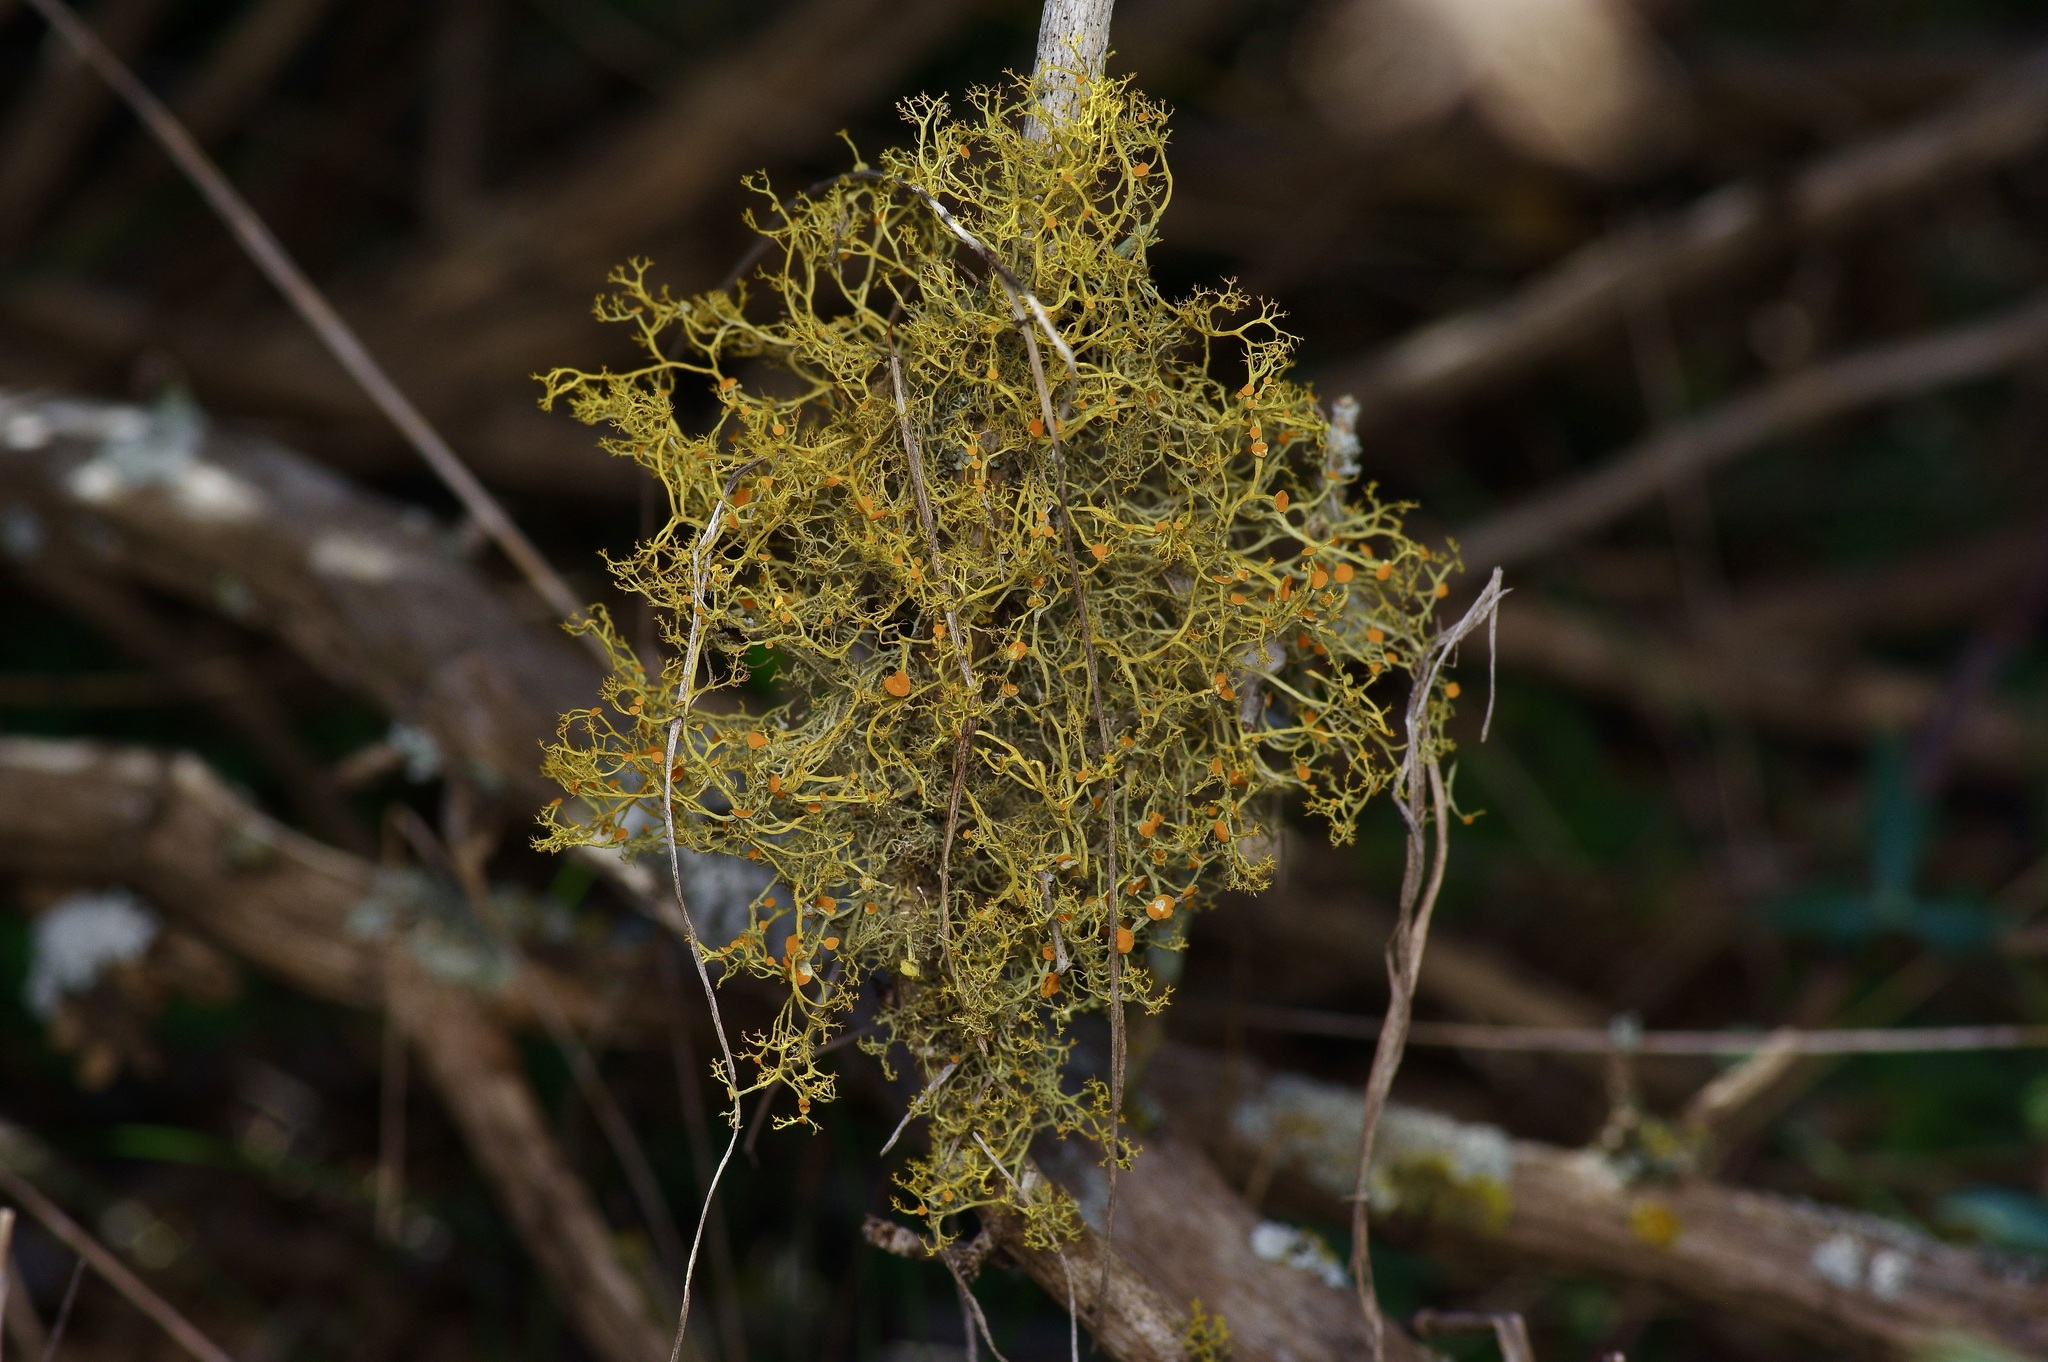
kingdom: Fungi
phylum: Ascomycota
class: Lecanoromycetes
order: Teloschistales
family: Teloschistaceae
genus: Teloschistes
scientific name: Teloschistes exilis
